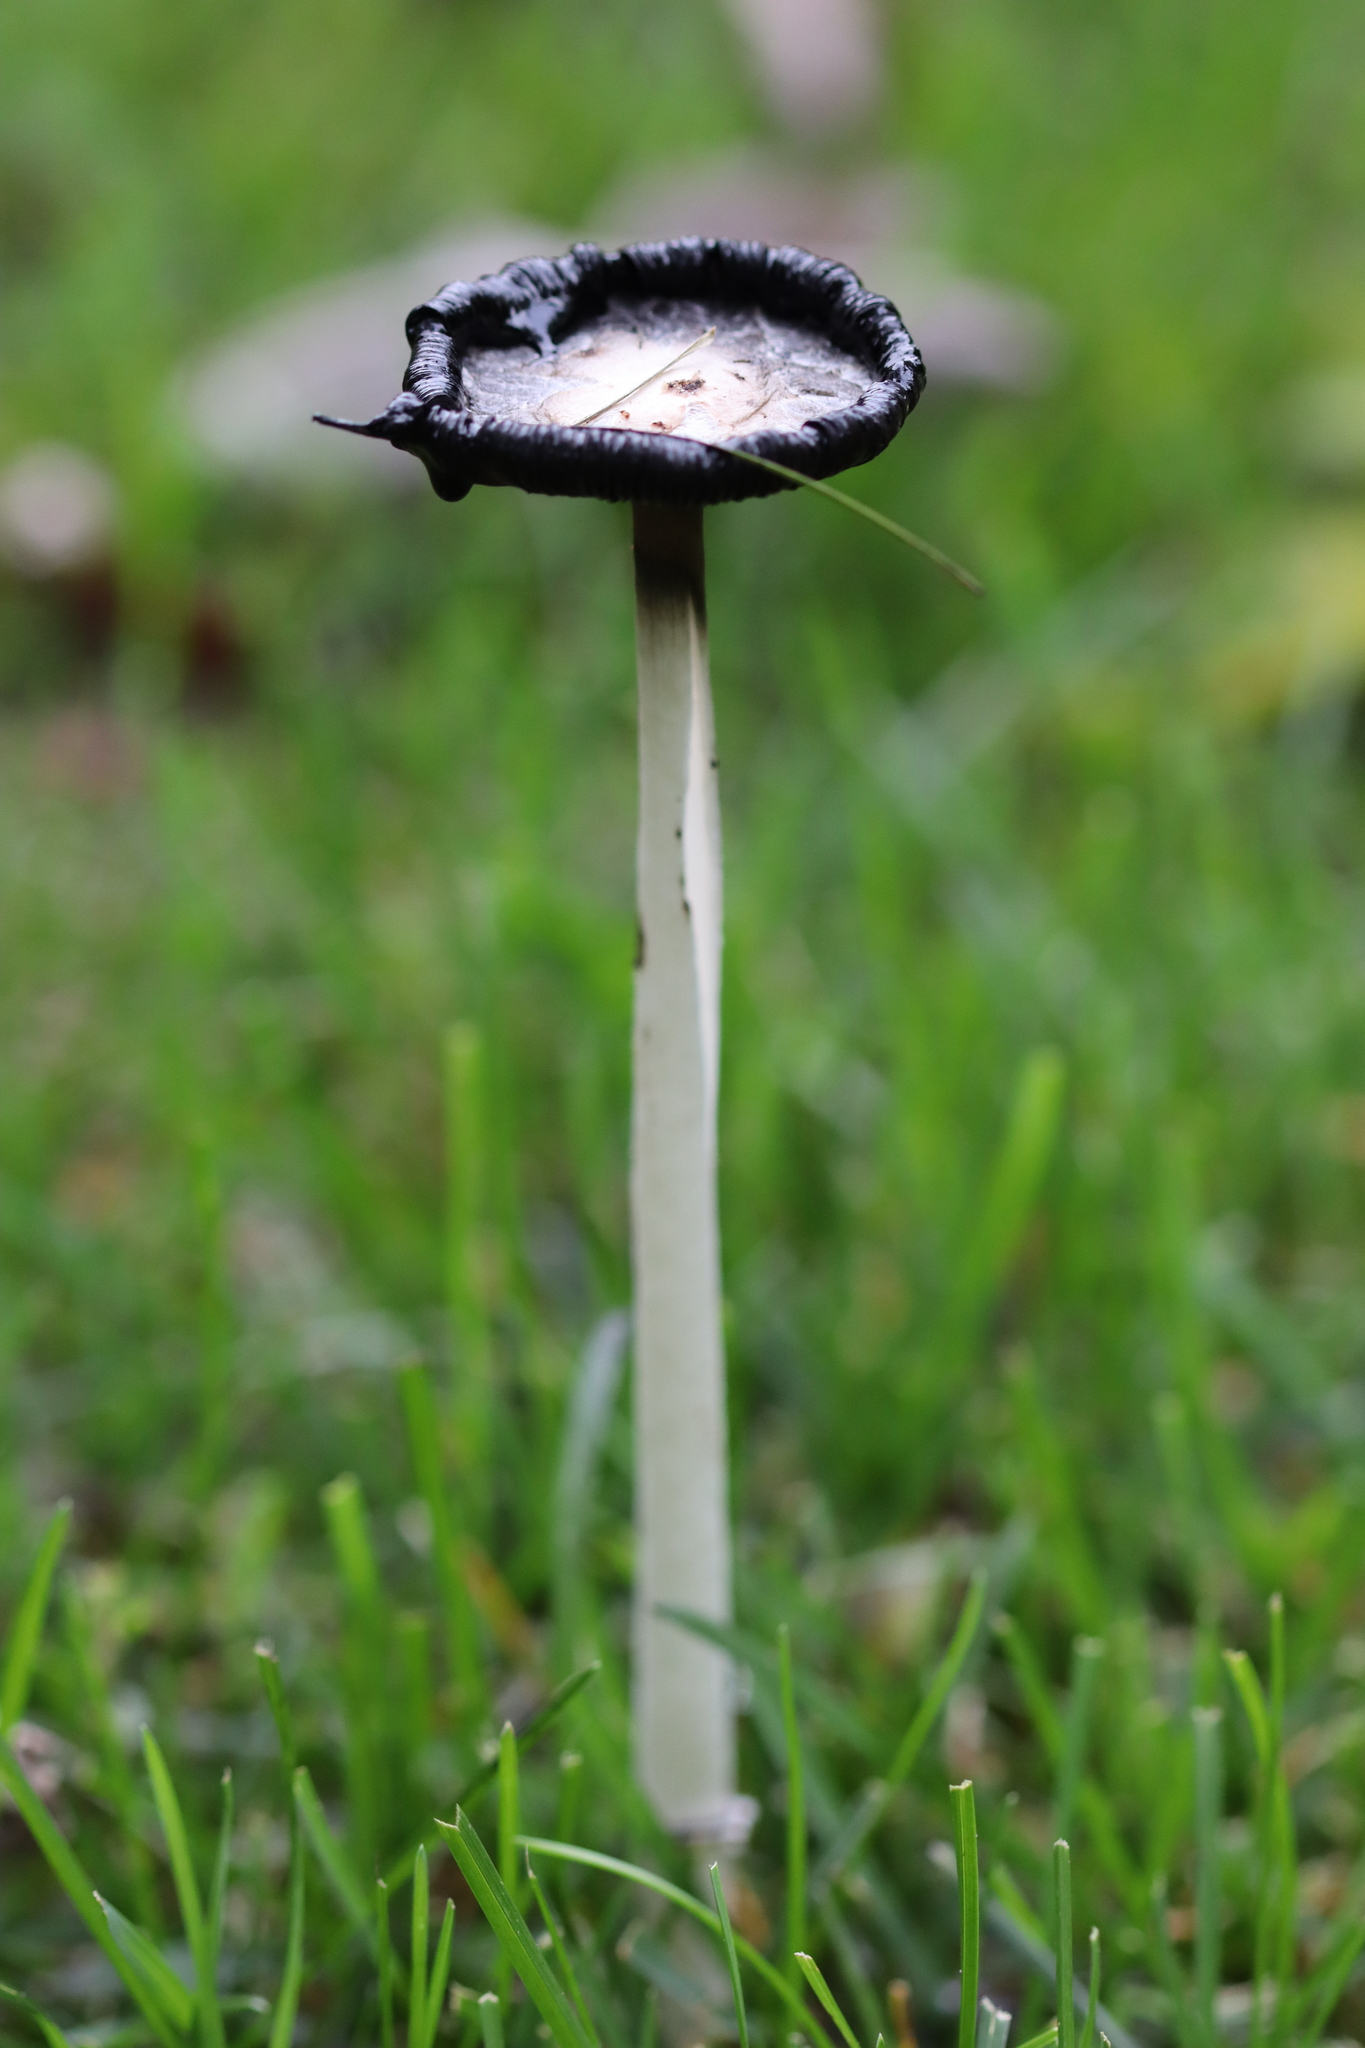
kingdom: Fungi
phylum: Basidiomycota
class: Agaricomycetes
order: Agaricales
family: Agaricaceae
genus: Coprinus
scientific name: Coprinus comatus
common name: Lawyer's wig
